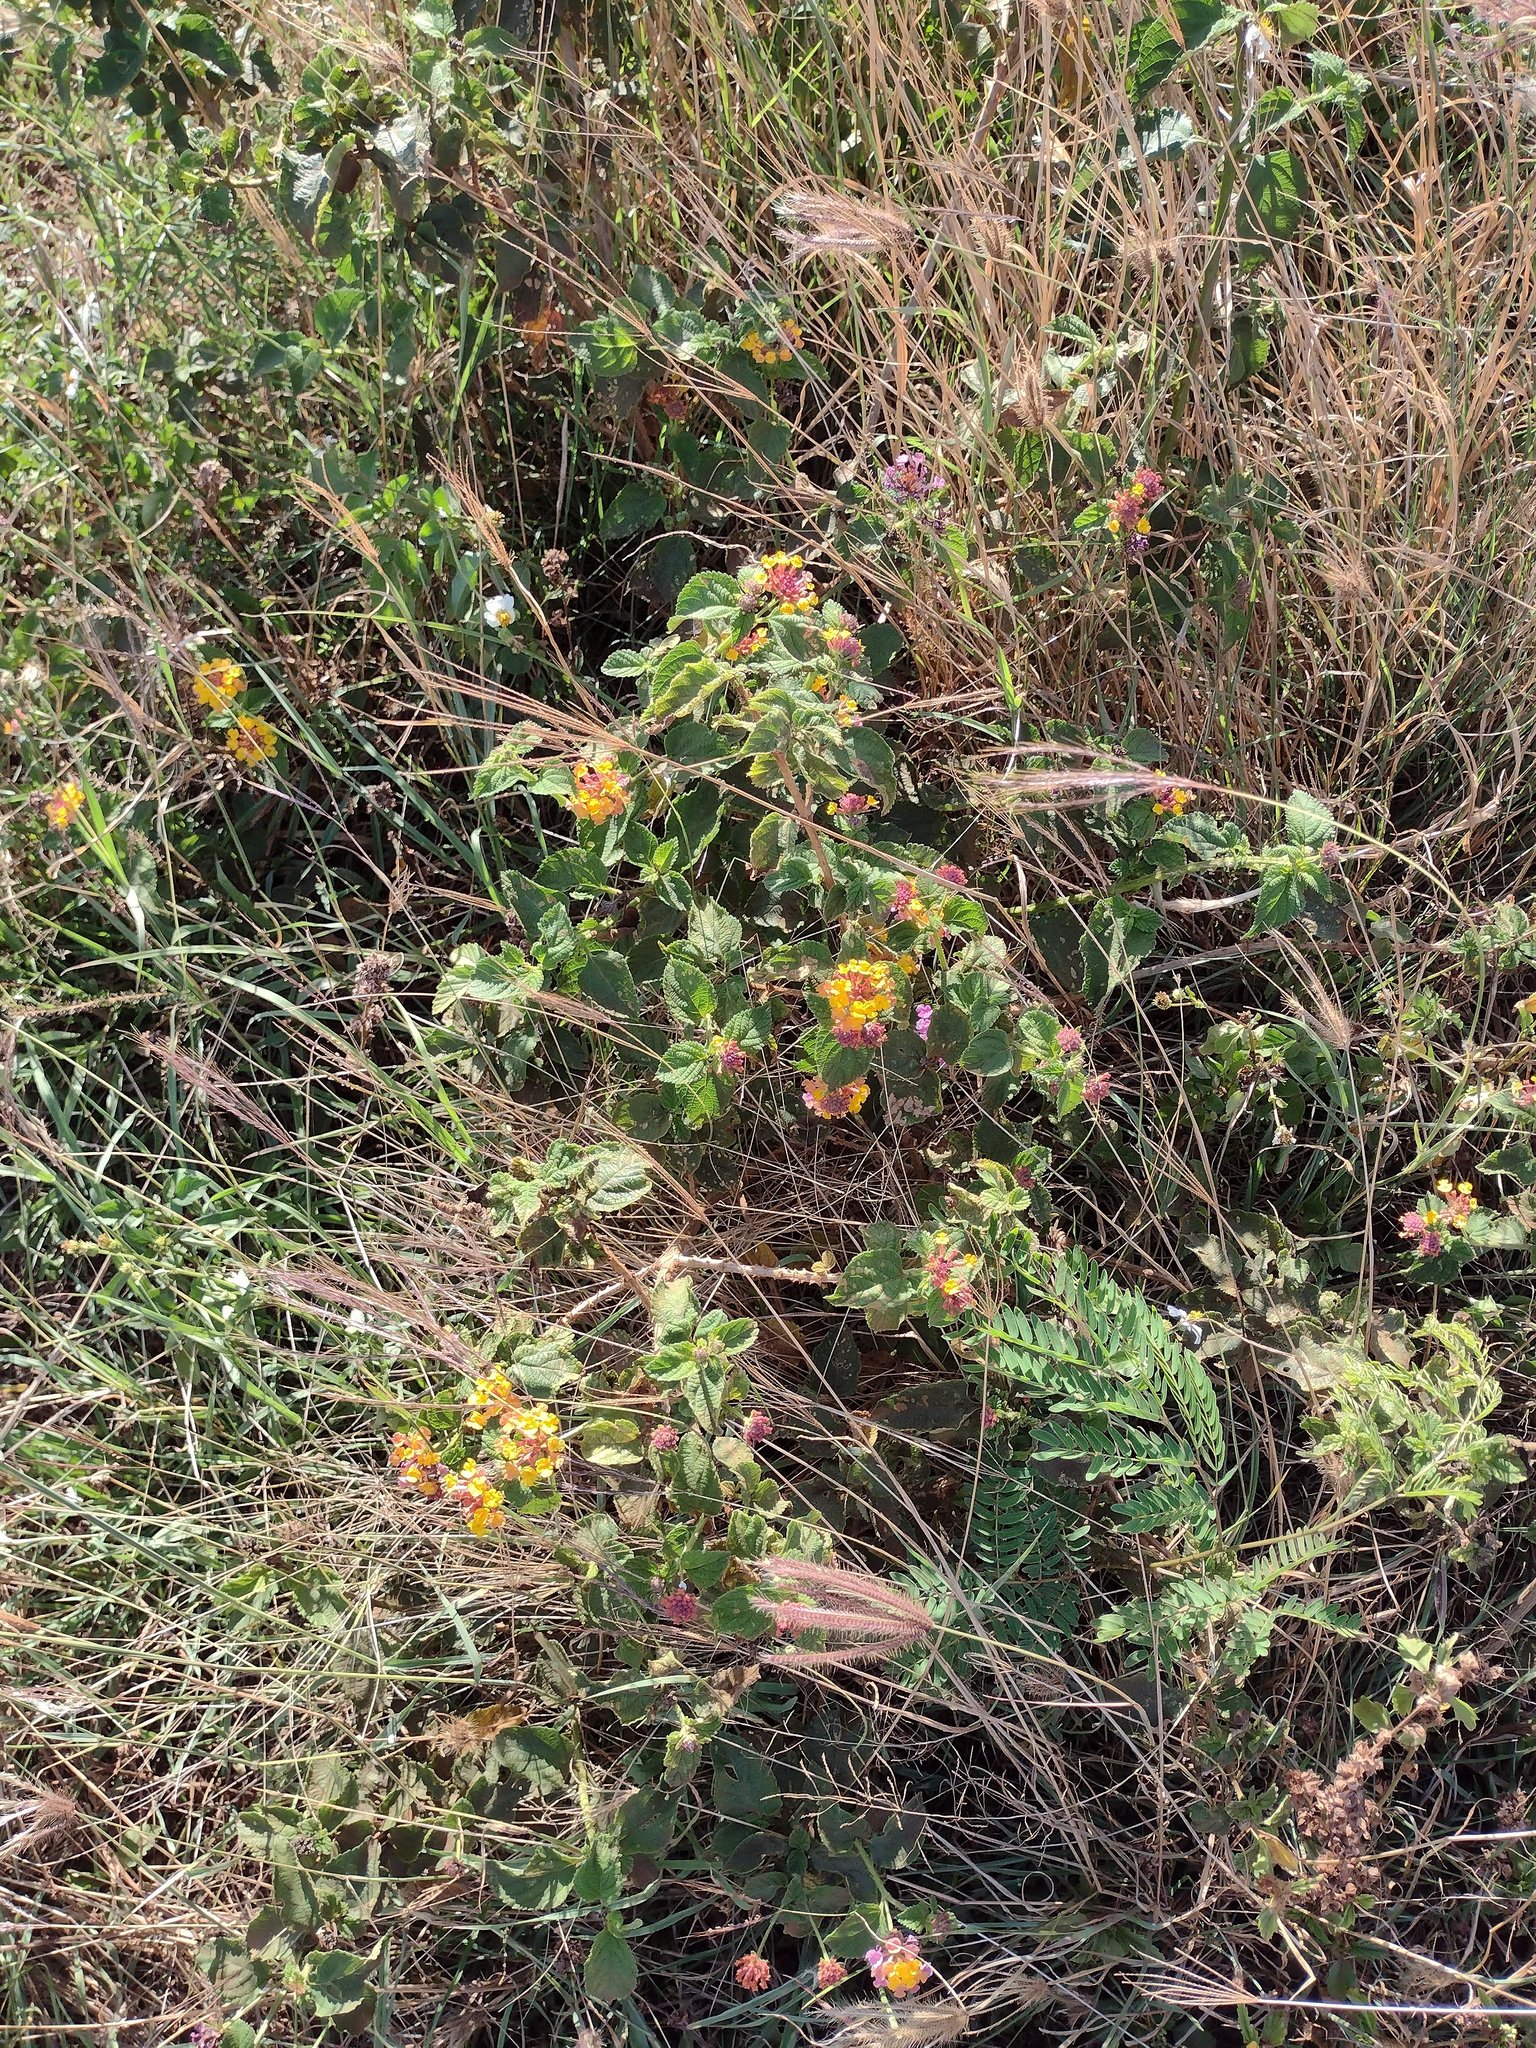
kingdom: Plantae
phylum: Tracheophyta
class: Magnoliopsida
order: Lamiales
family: Verbenaceae
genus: Lantana
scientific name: Lantana camara
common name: Lantana
